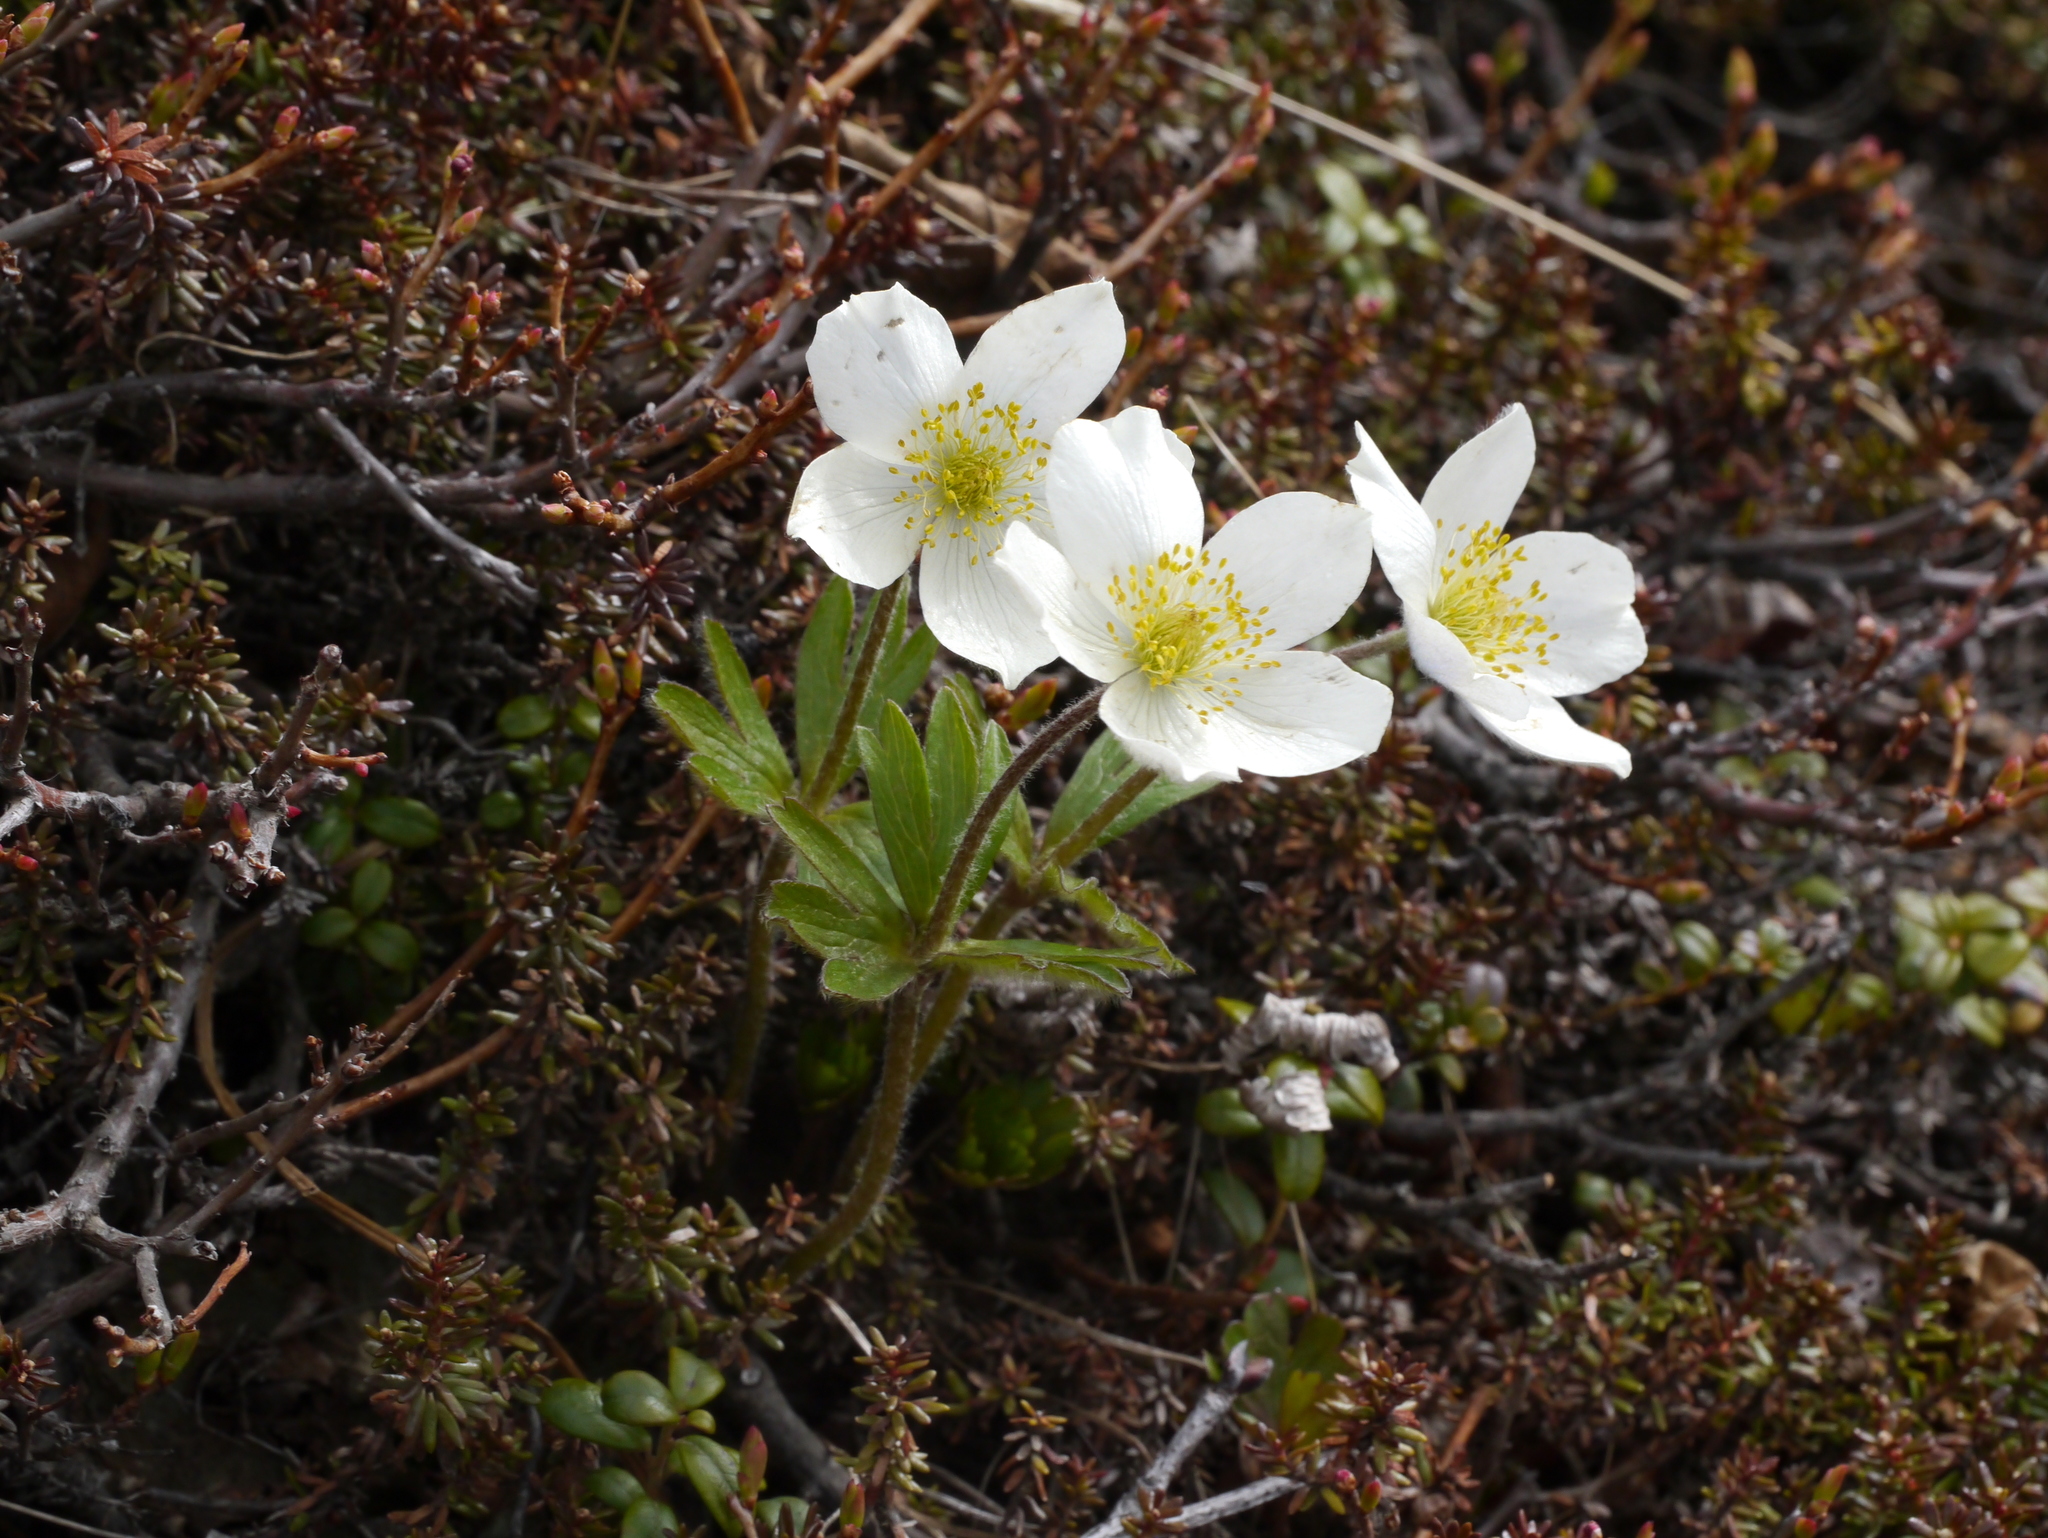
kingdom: Plantae
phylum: Tracheophyta
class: Magnoliopsida
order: Ranunculales
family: Ranunculaceae
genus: Anemone
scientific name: Anemone parviflora
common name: Northern anemone
